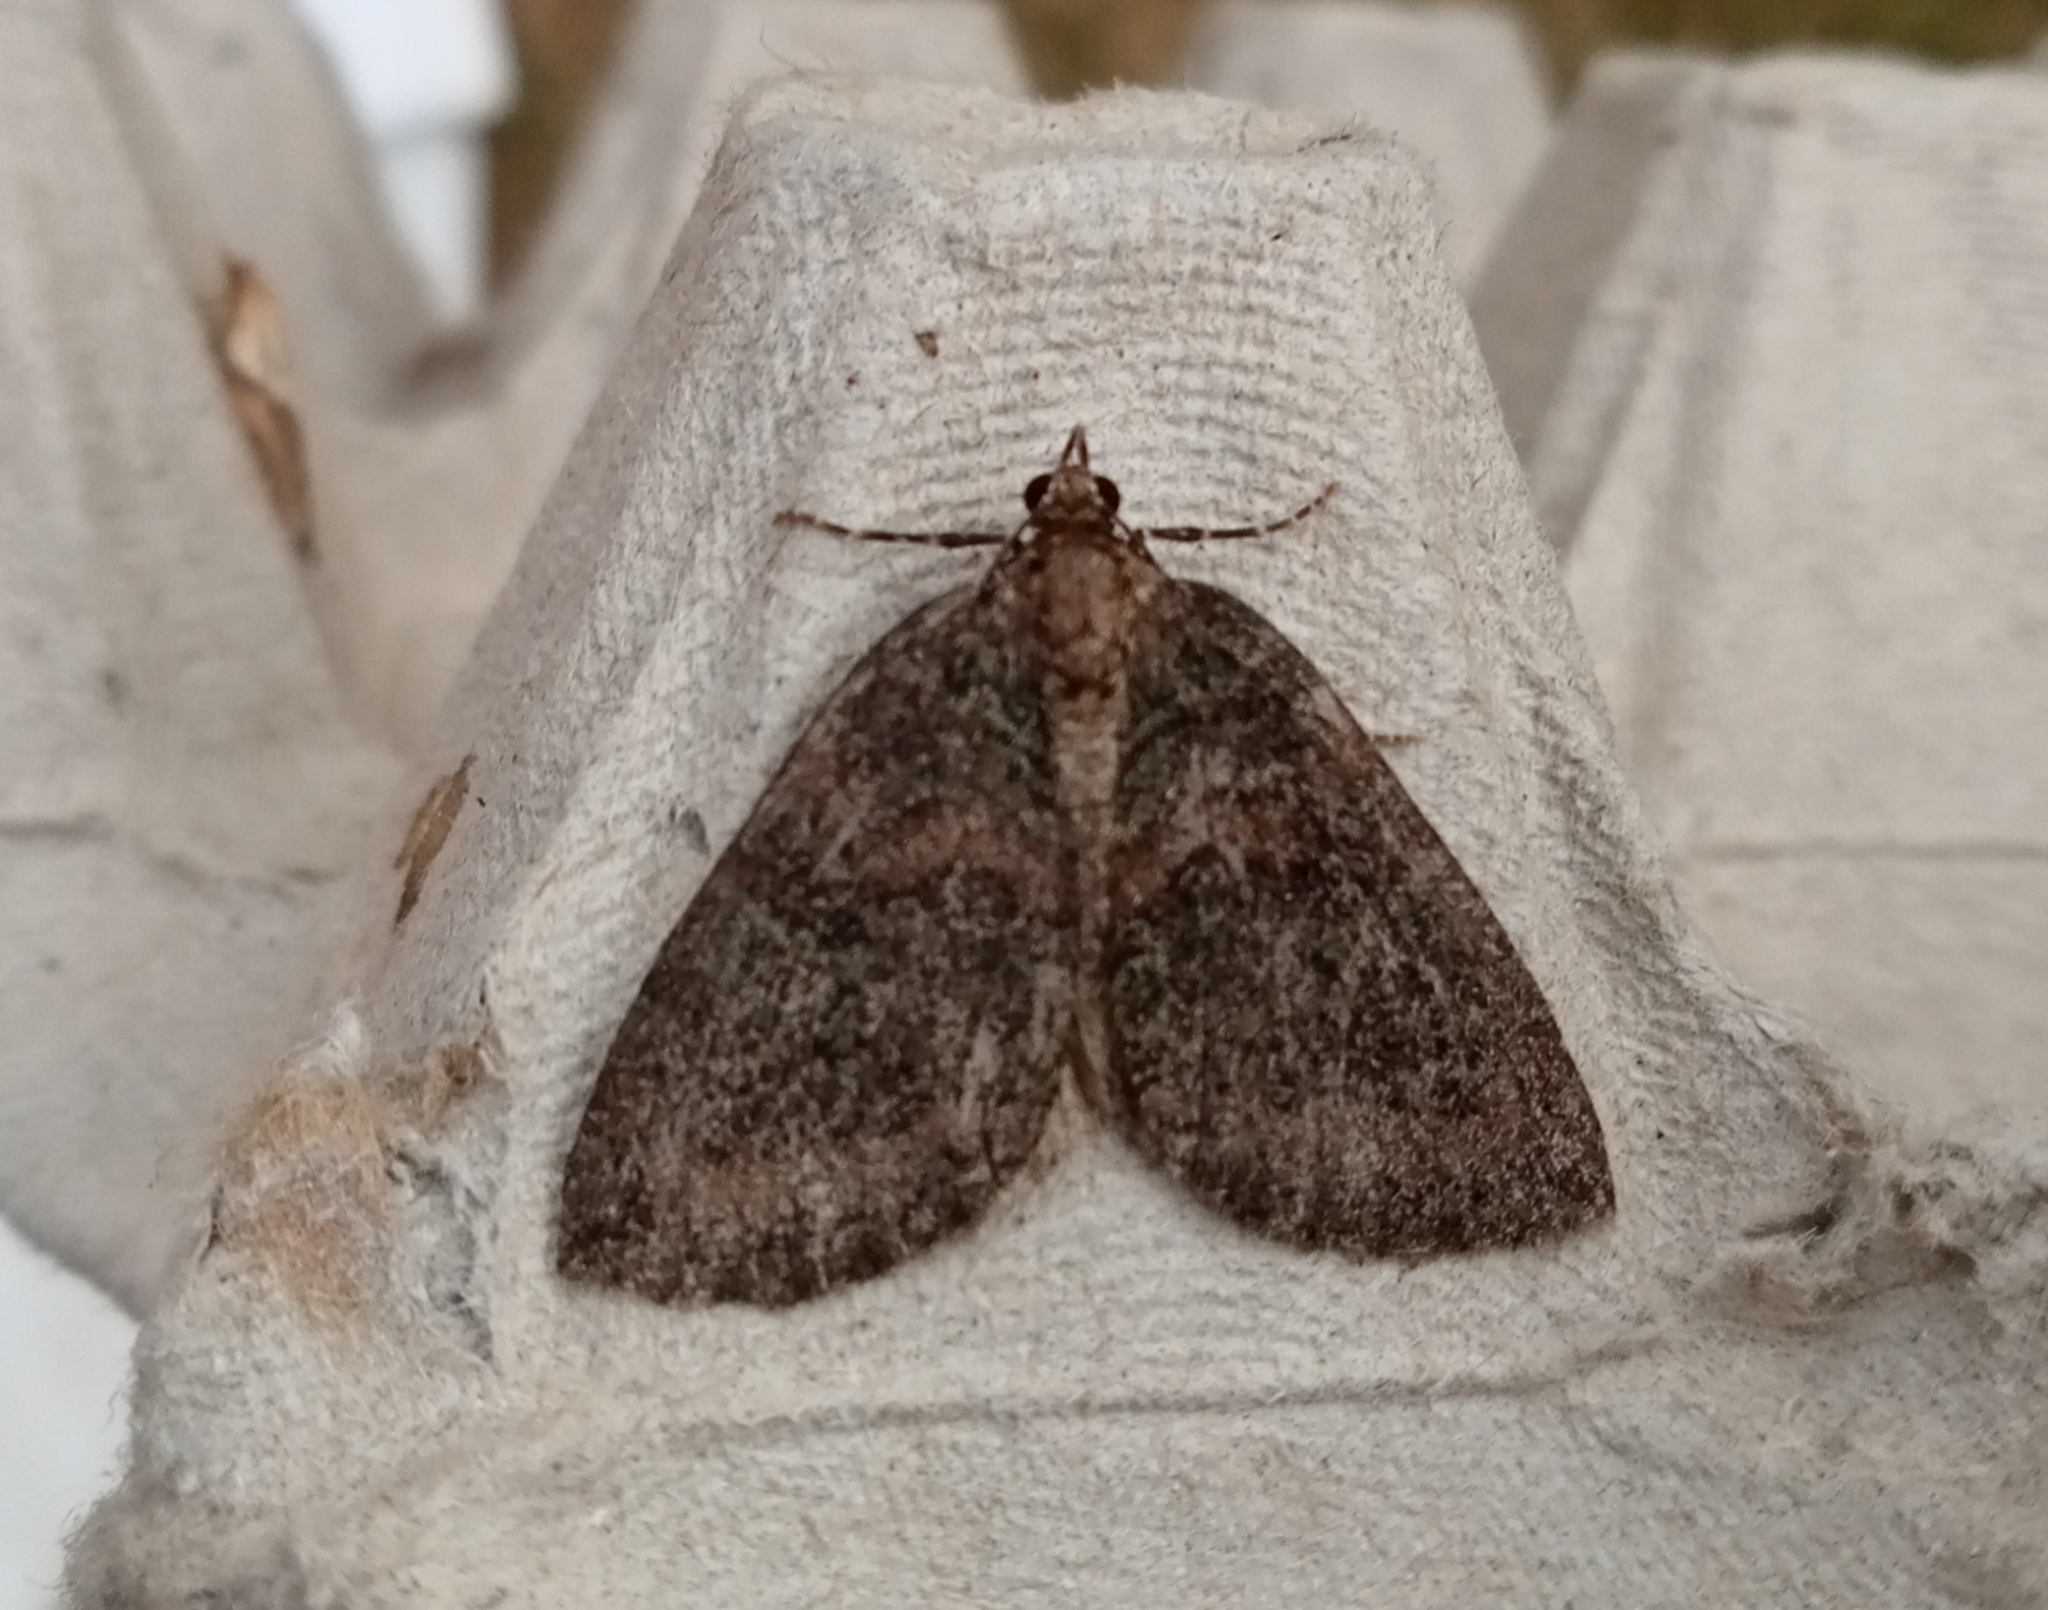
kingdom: Animalia
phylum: Arthropoda
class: Insecta
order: Lepidoptera
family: Geometridae
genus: Hydriomena
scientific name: Hydriomena furcata
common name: July highflyer
